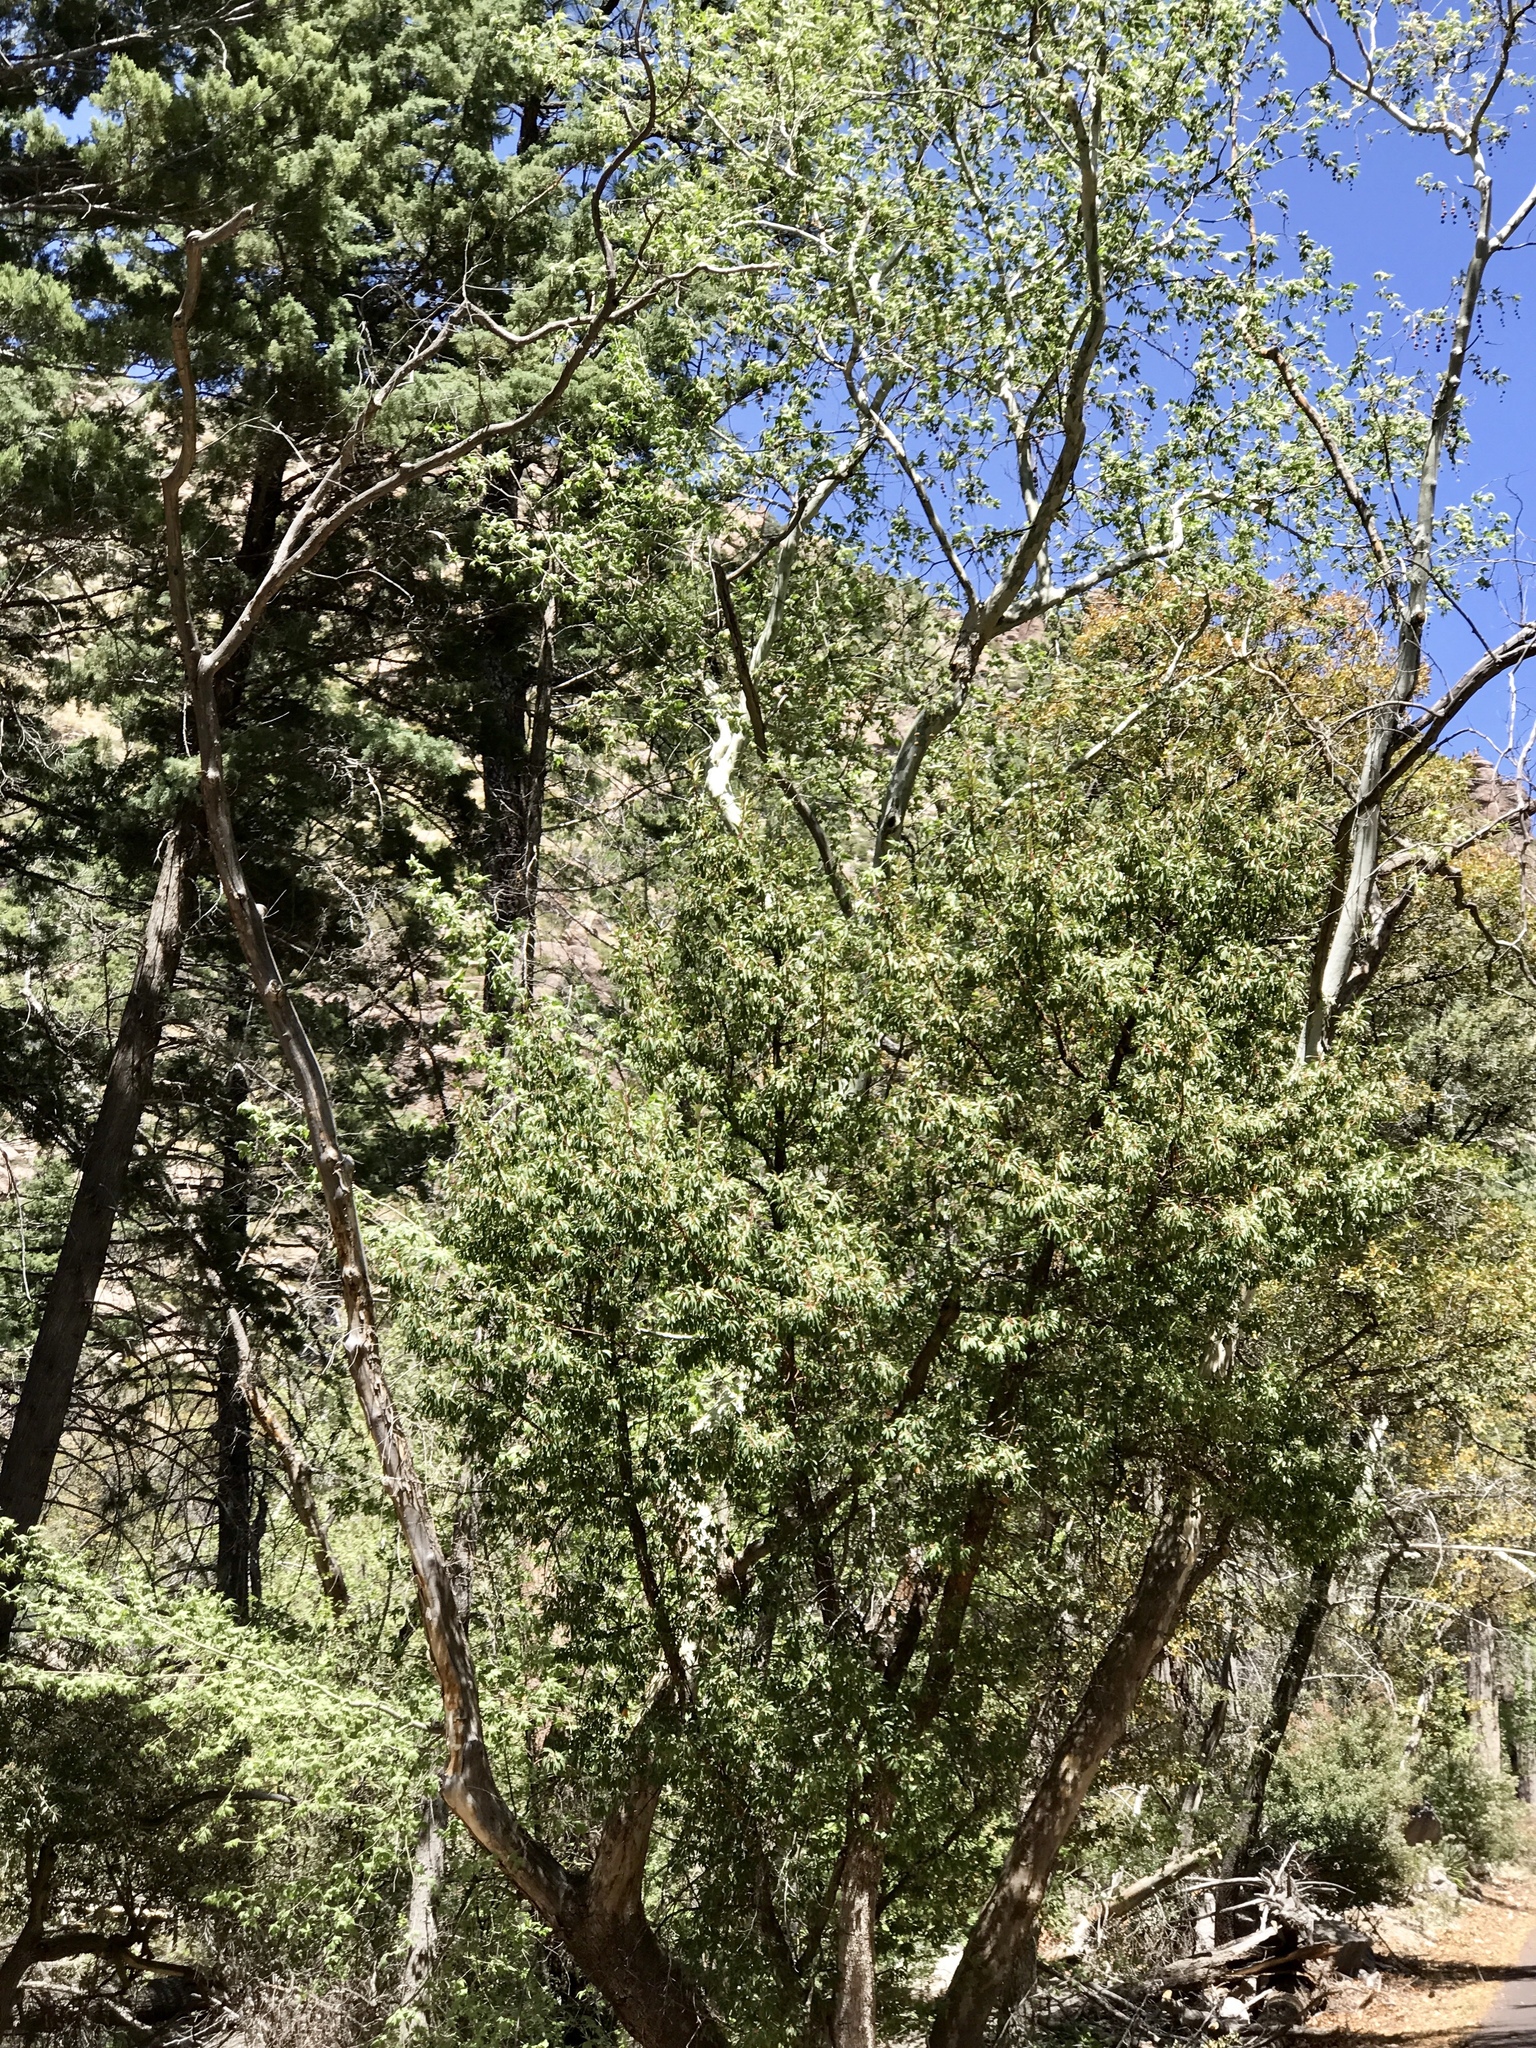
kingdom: Plantae
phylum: Tracheophyta
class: Magnoliopsida
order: Ericales
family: Ericaceae
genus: Arbutus
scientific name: Arbutus arizonica
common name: Arizona madrone
